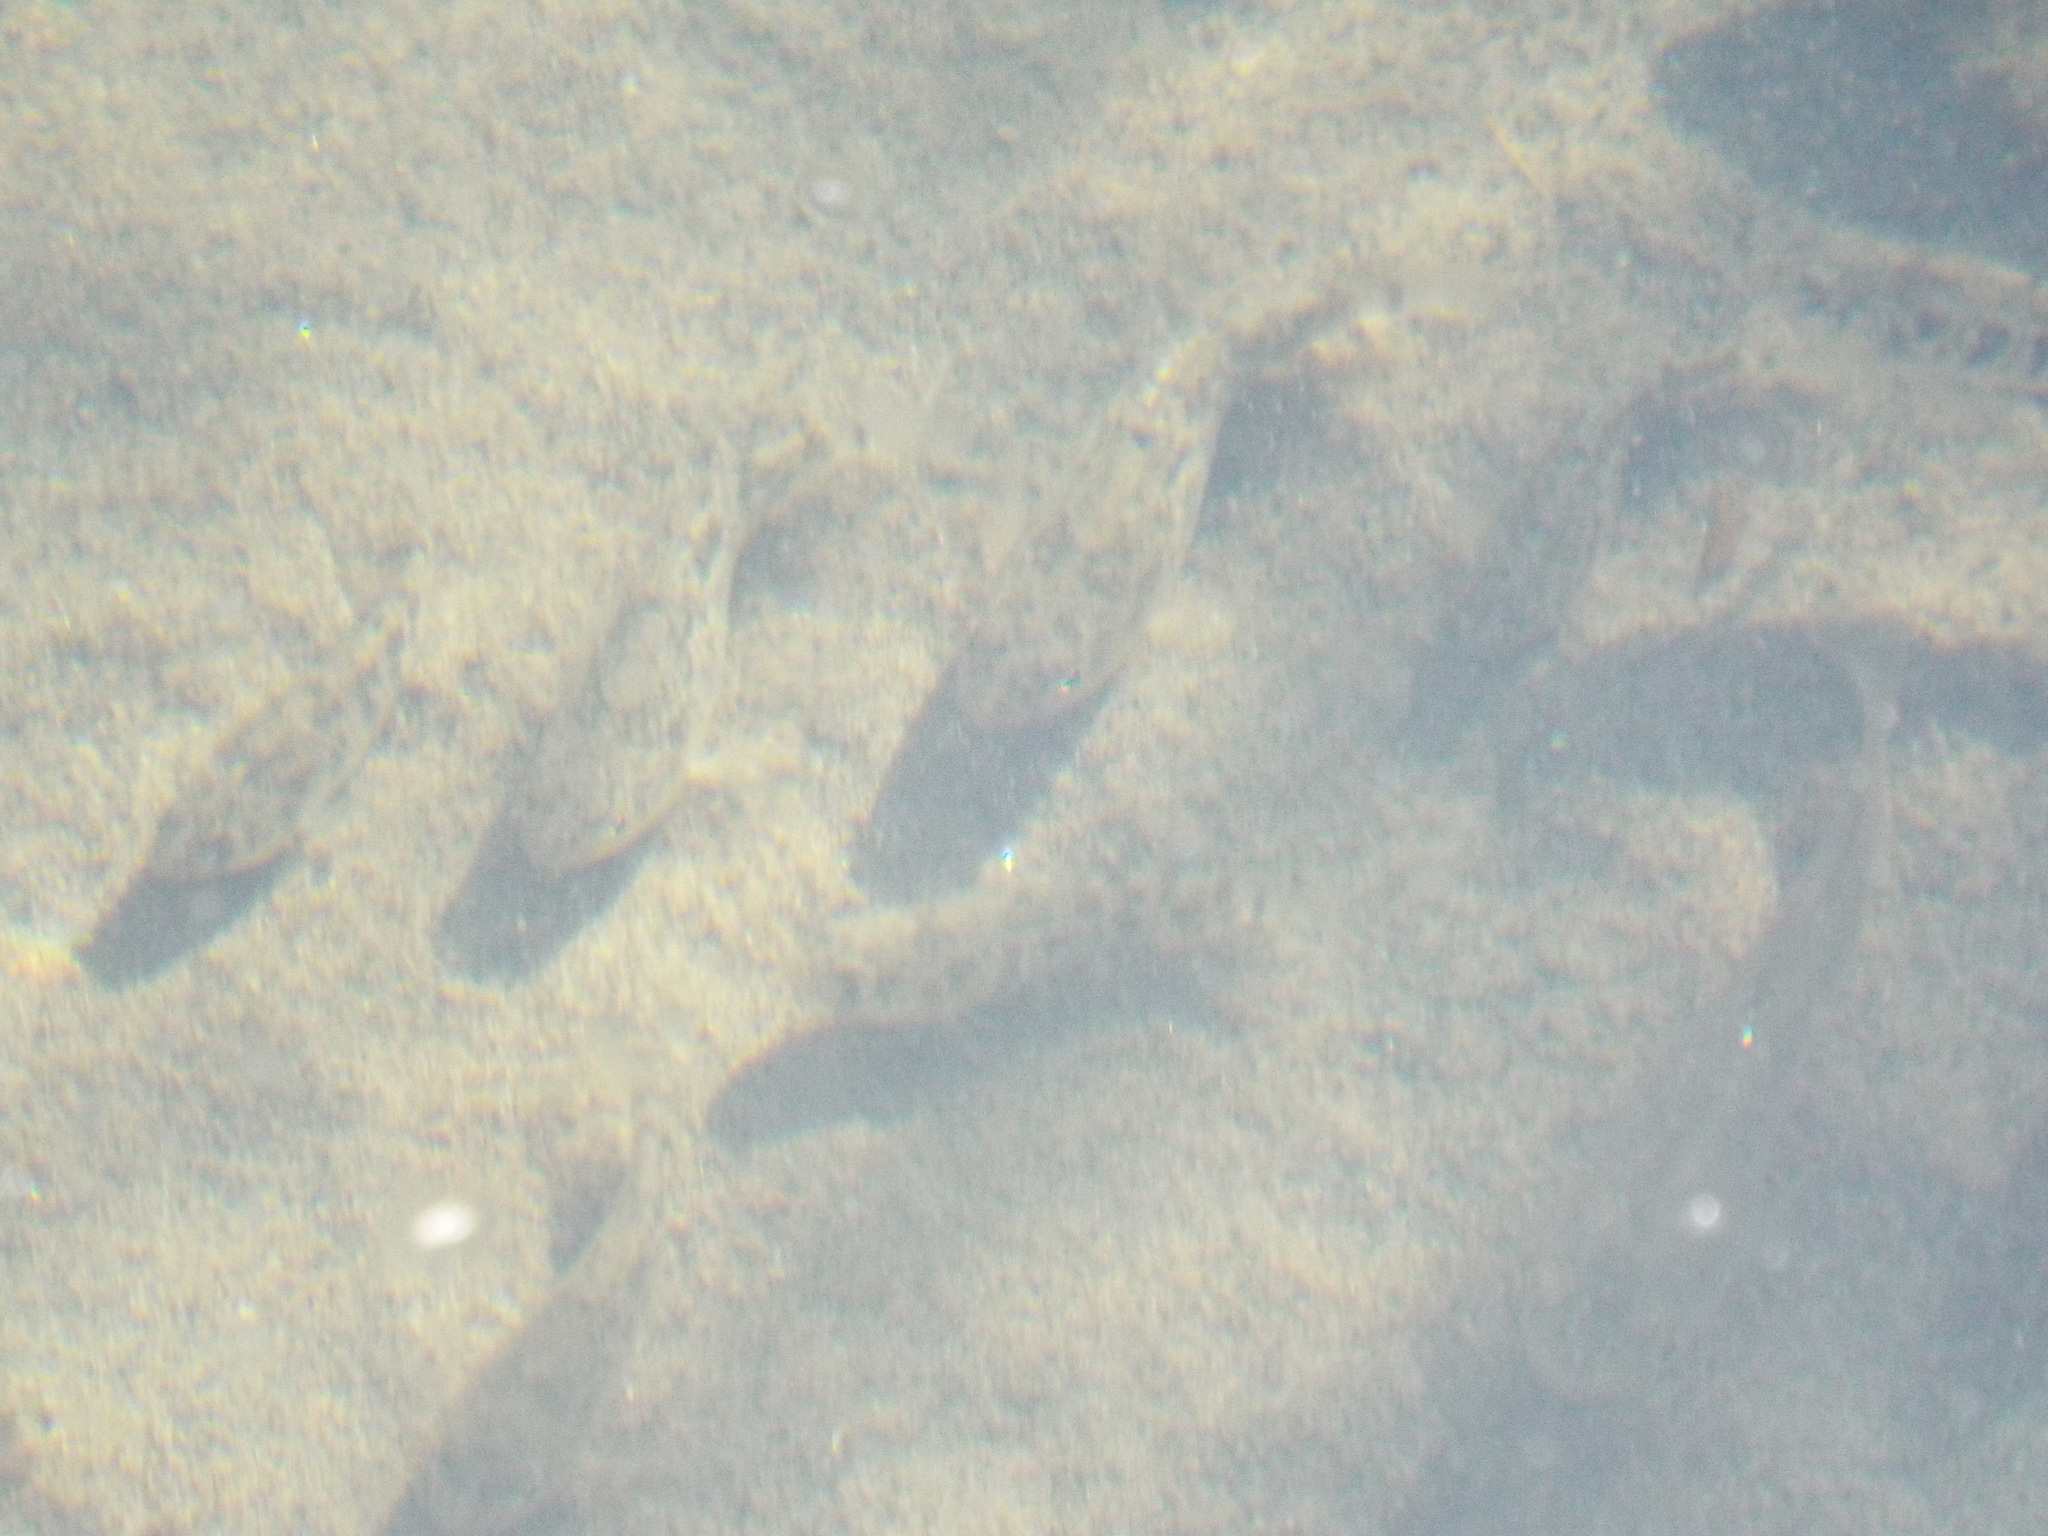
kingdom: Animalia
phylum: Chordata
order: Cyprinodontiformes
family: Cyprinodontidae
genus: Cyprinodon
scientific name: Cyprinodon variegatus
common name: Sheepshead minnow
